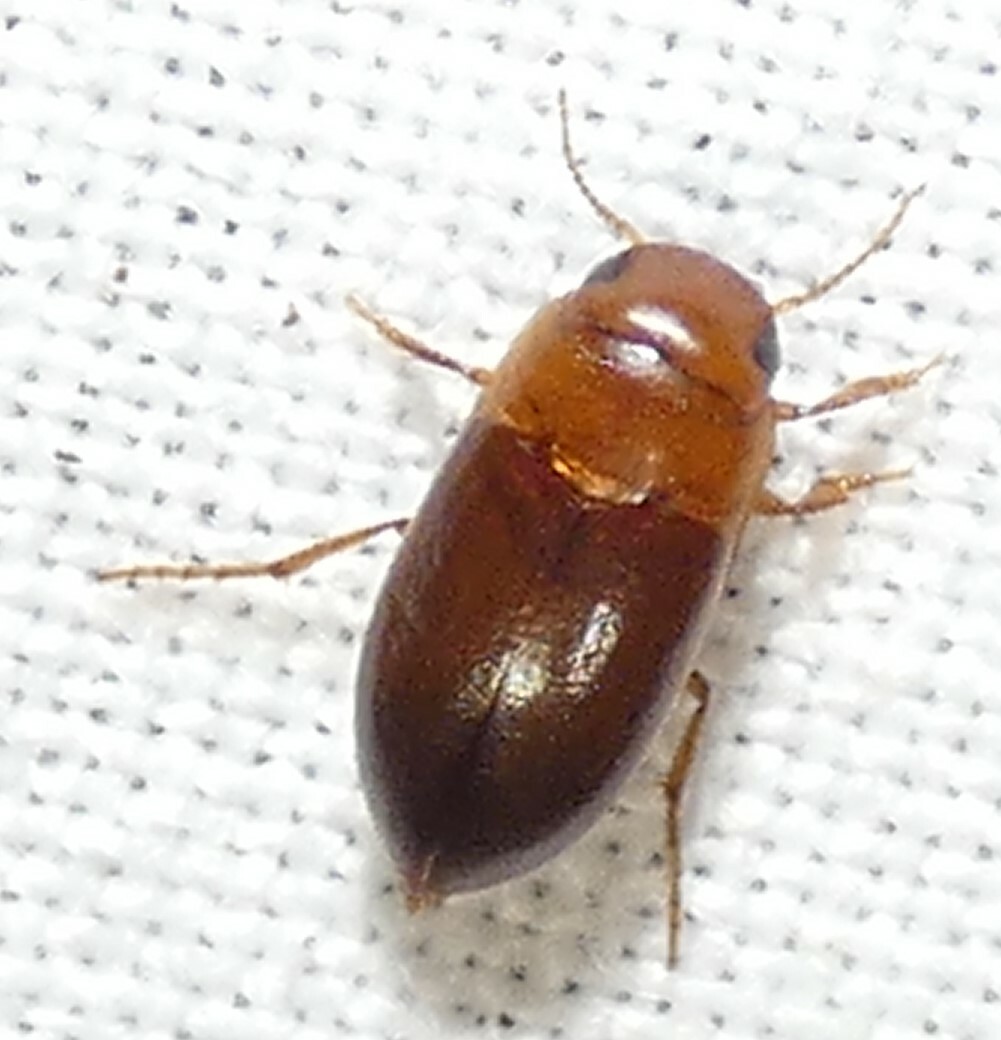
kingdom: Animalia
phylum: Arthropoda
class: Insecta
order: Coleoptera
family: Dytiscidae
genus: Celina
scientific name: Celina
